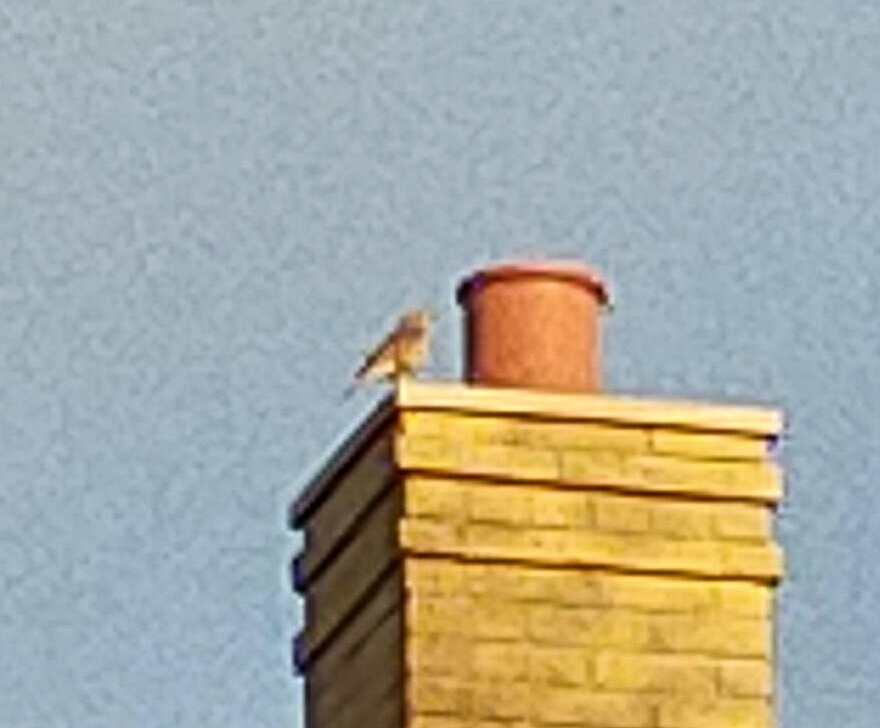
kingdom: Animalia
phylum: Chordata
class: Aves
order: Passeriformes
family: Turdidae
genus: Turdus
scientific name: Turdus iliacus
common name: Redwing
